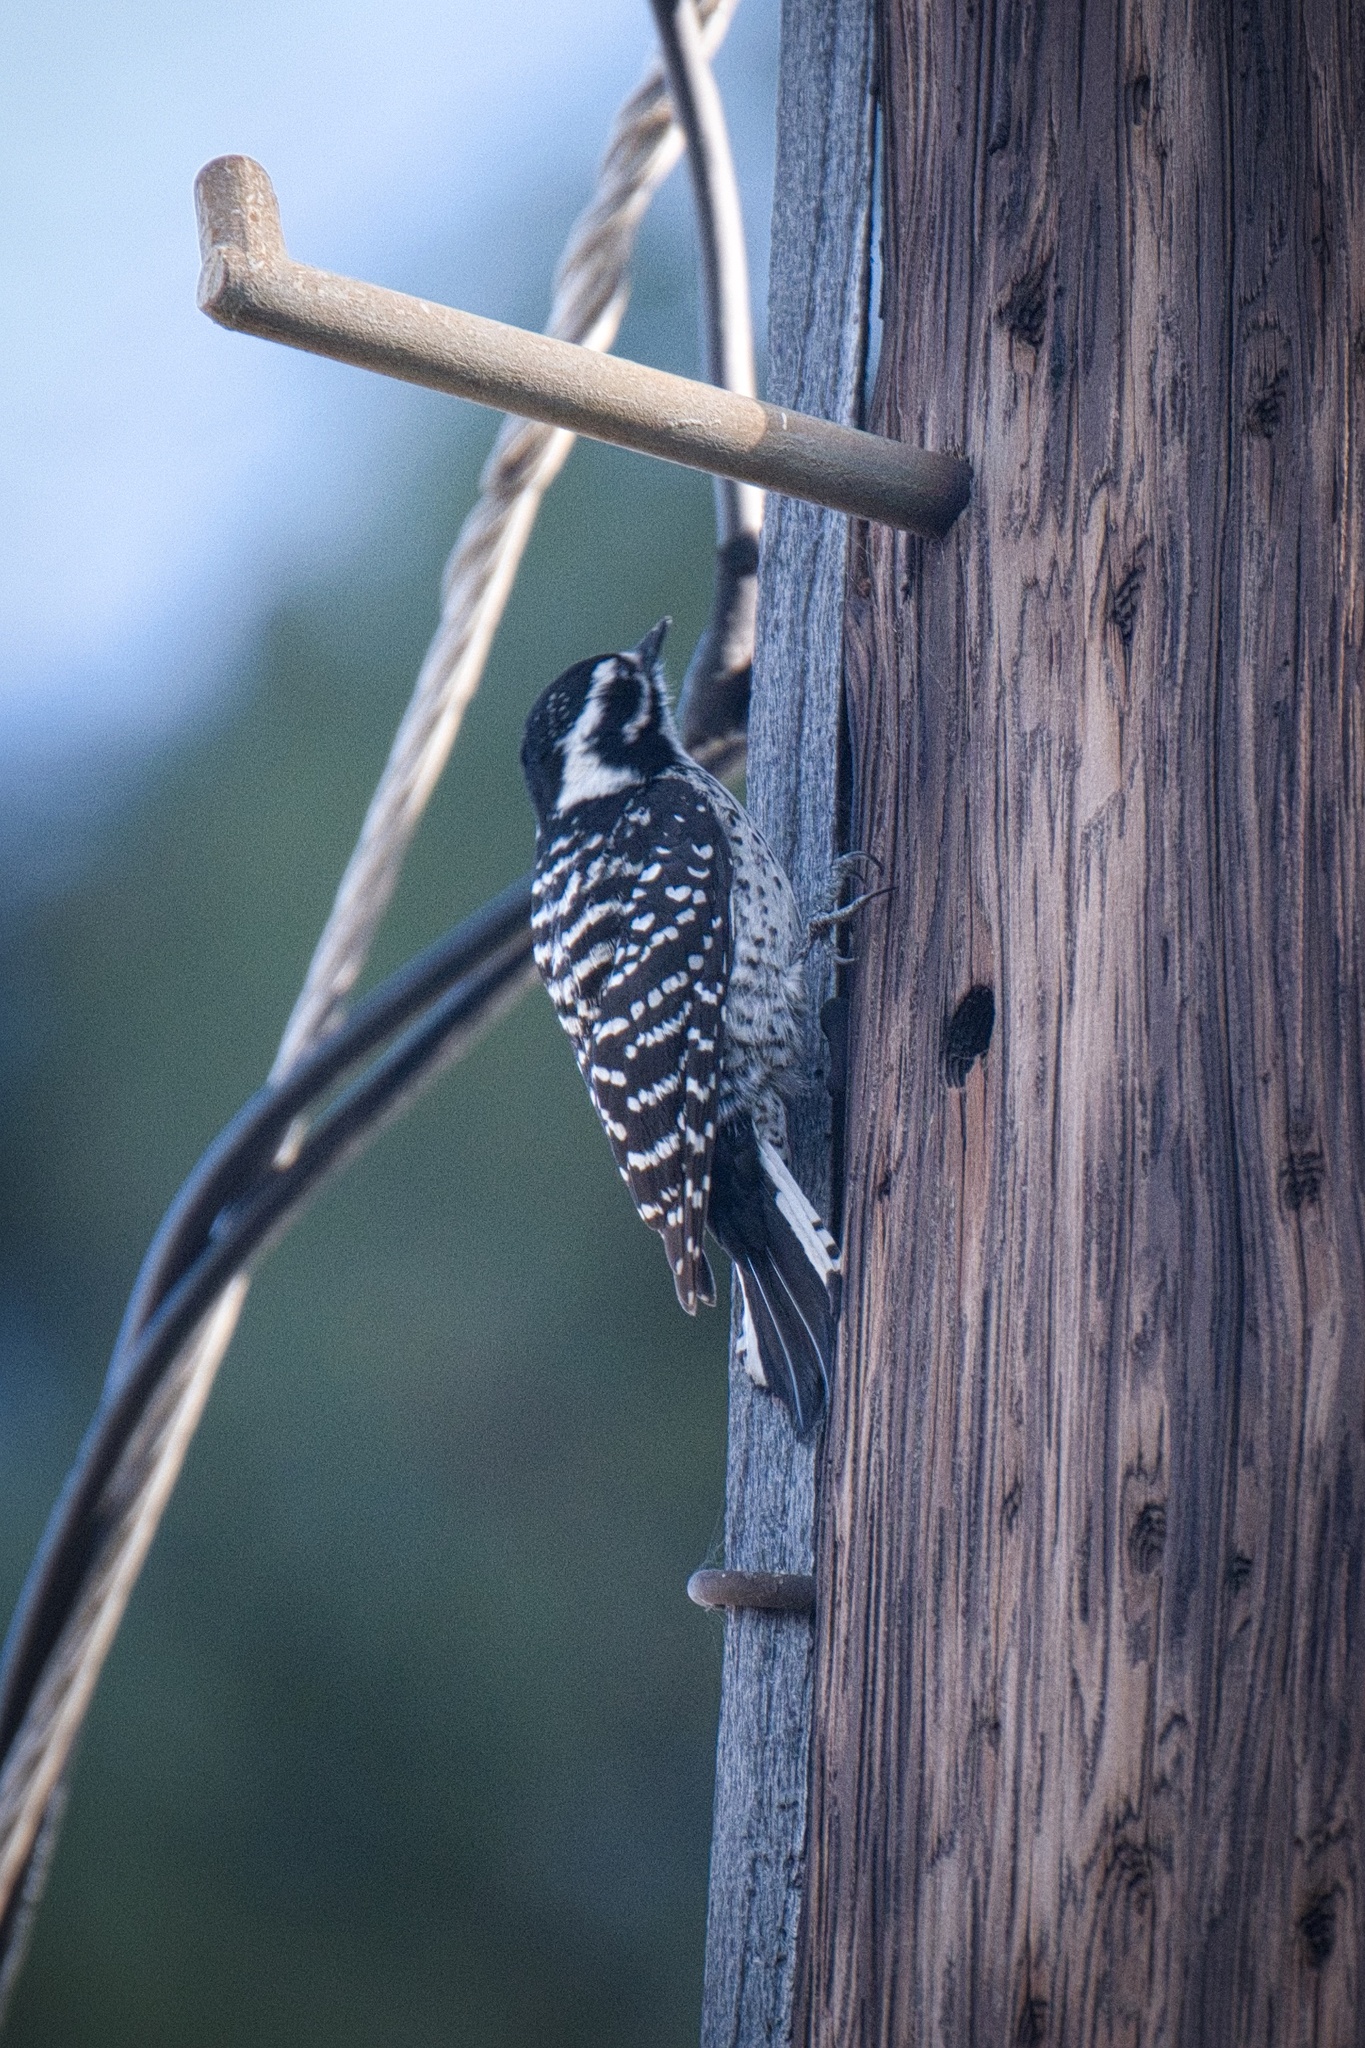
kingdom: Animalia
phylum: Chordata
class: Aves
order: Piciformes
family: Picidae
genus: Dryobates
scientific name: Dryobates nuttallii
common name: Nuttall's woodpecker
